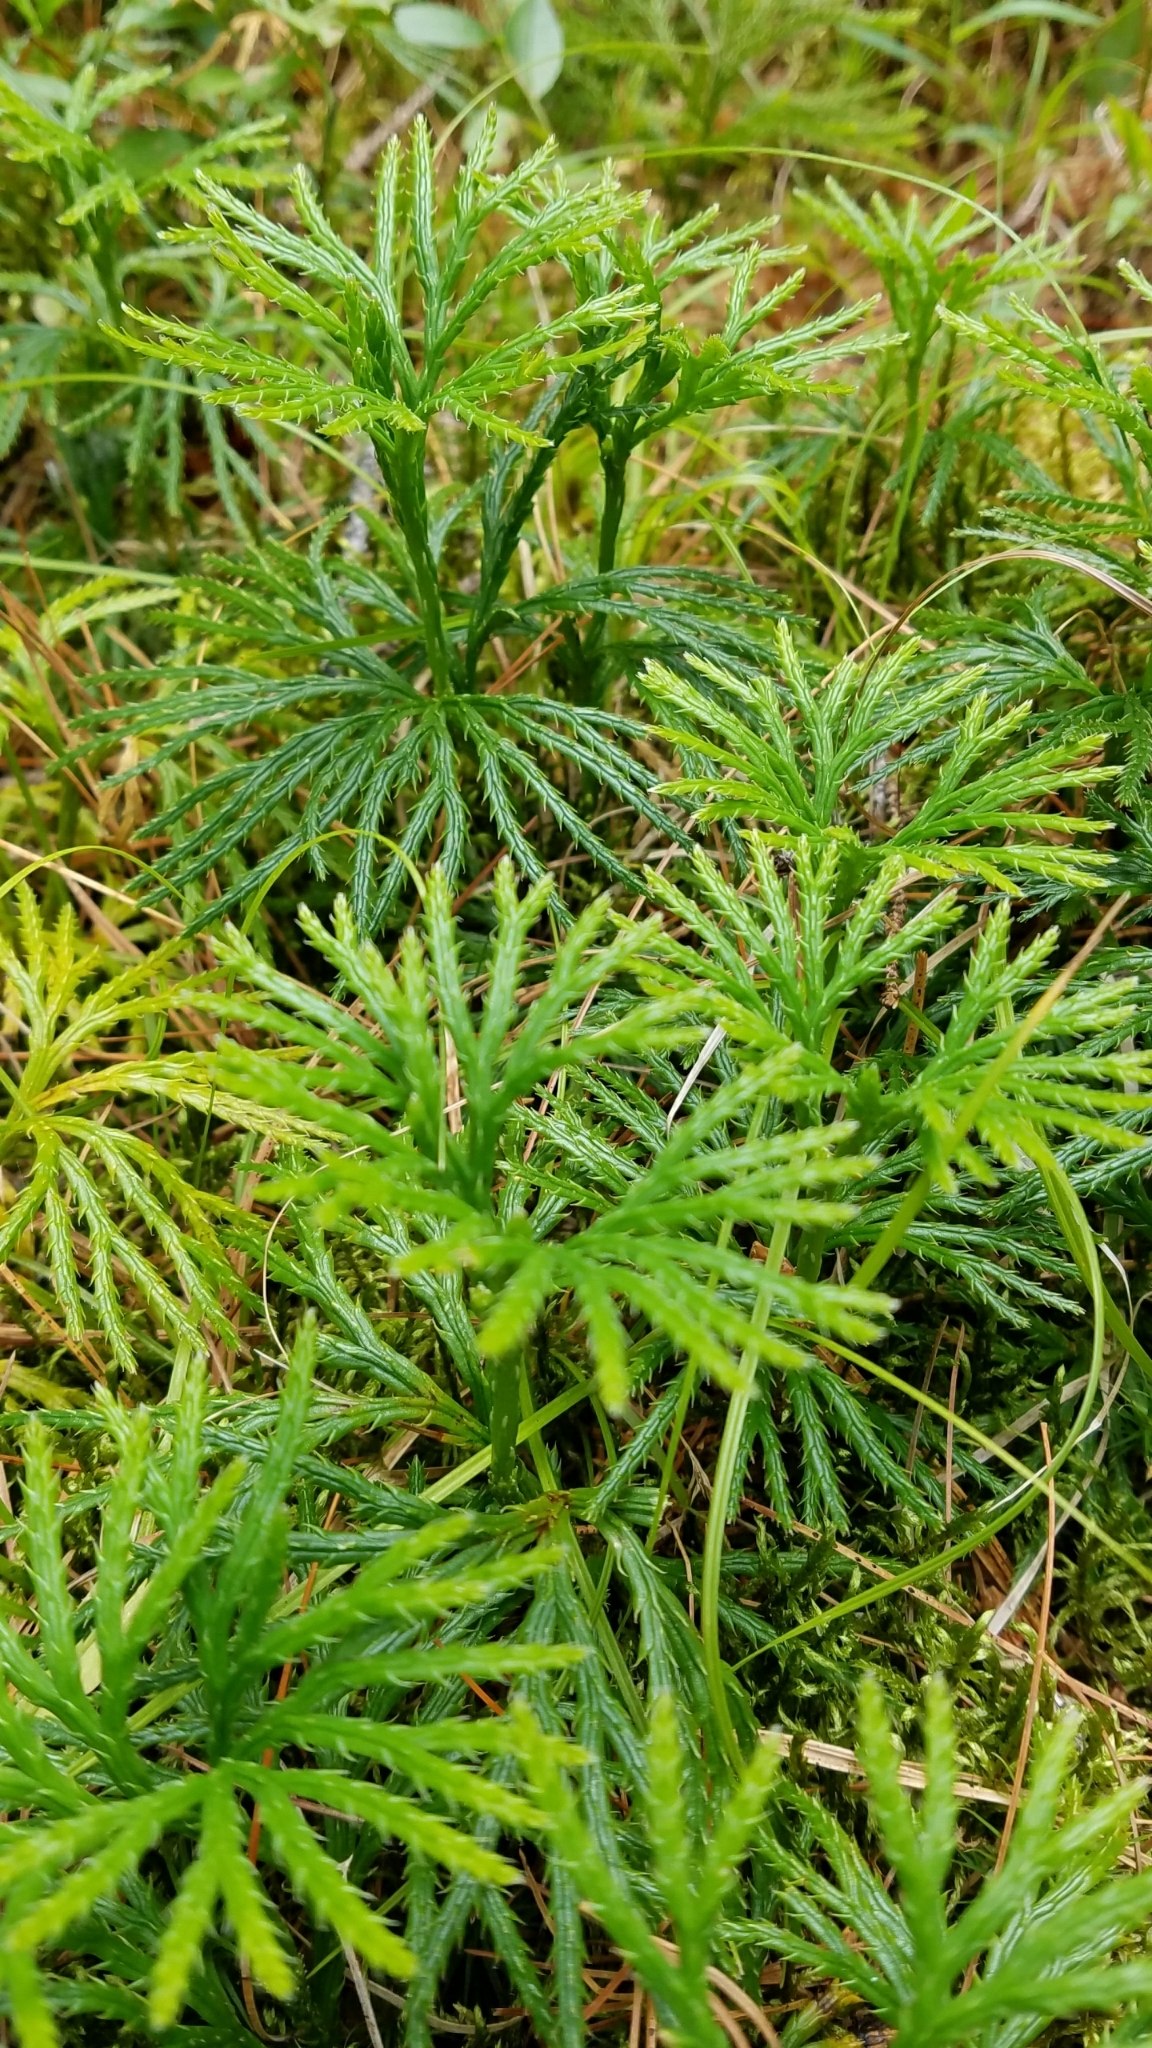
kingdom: Plantae
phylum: Tracheophyta
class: Lycopodiopsida
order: Lycopodiales
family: Lycopodiaceae
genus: Diphasiastrum
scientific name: Diphasiastrum digitatum
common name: Southern running-pine
